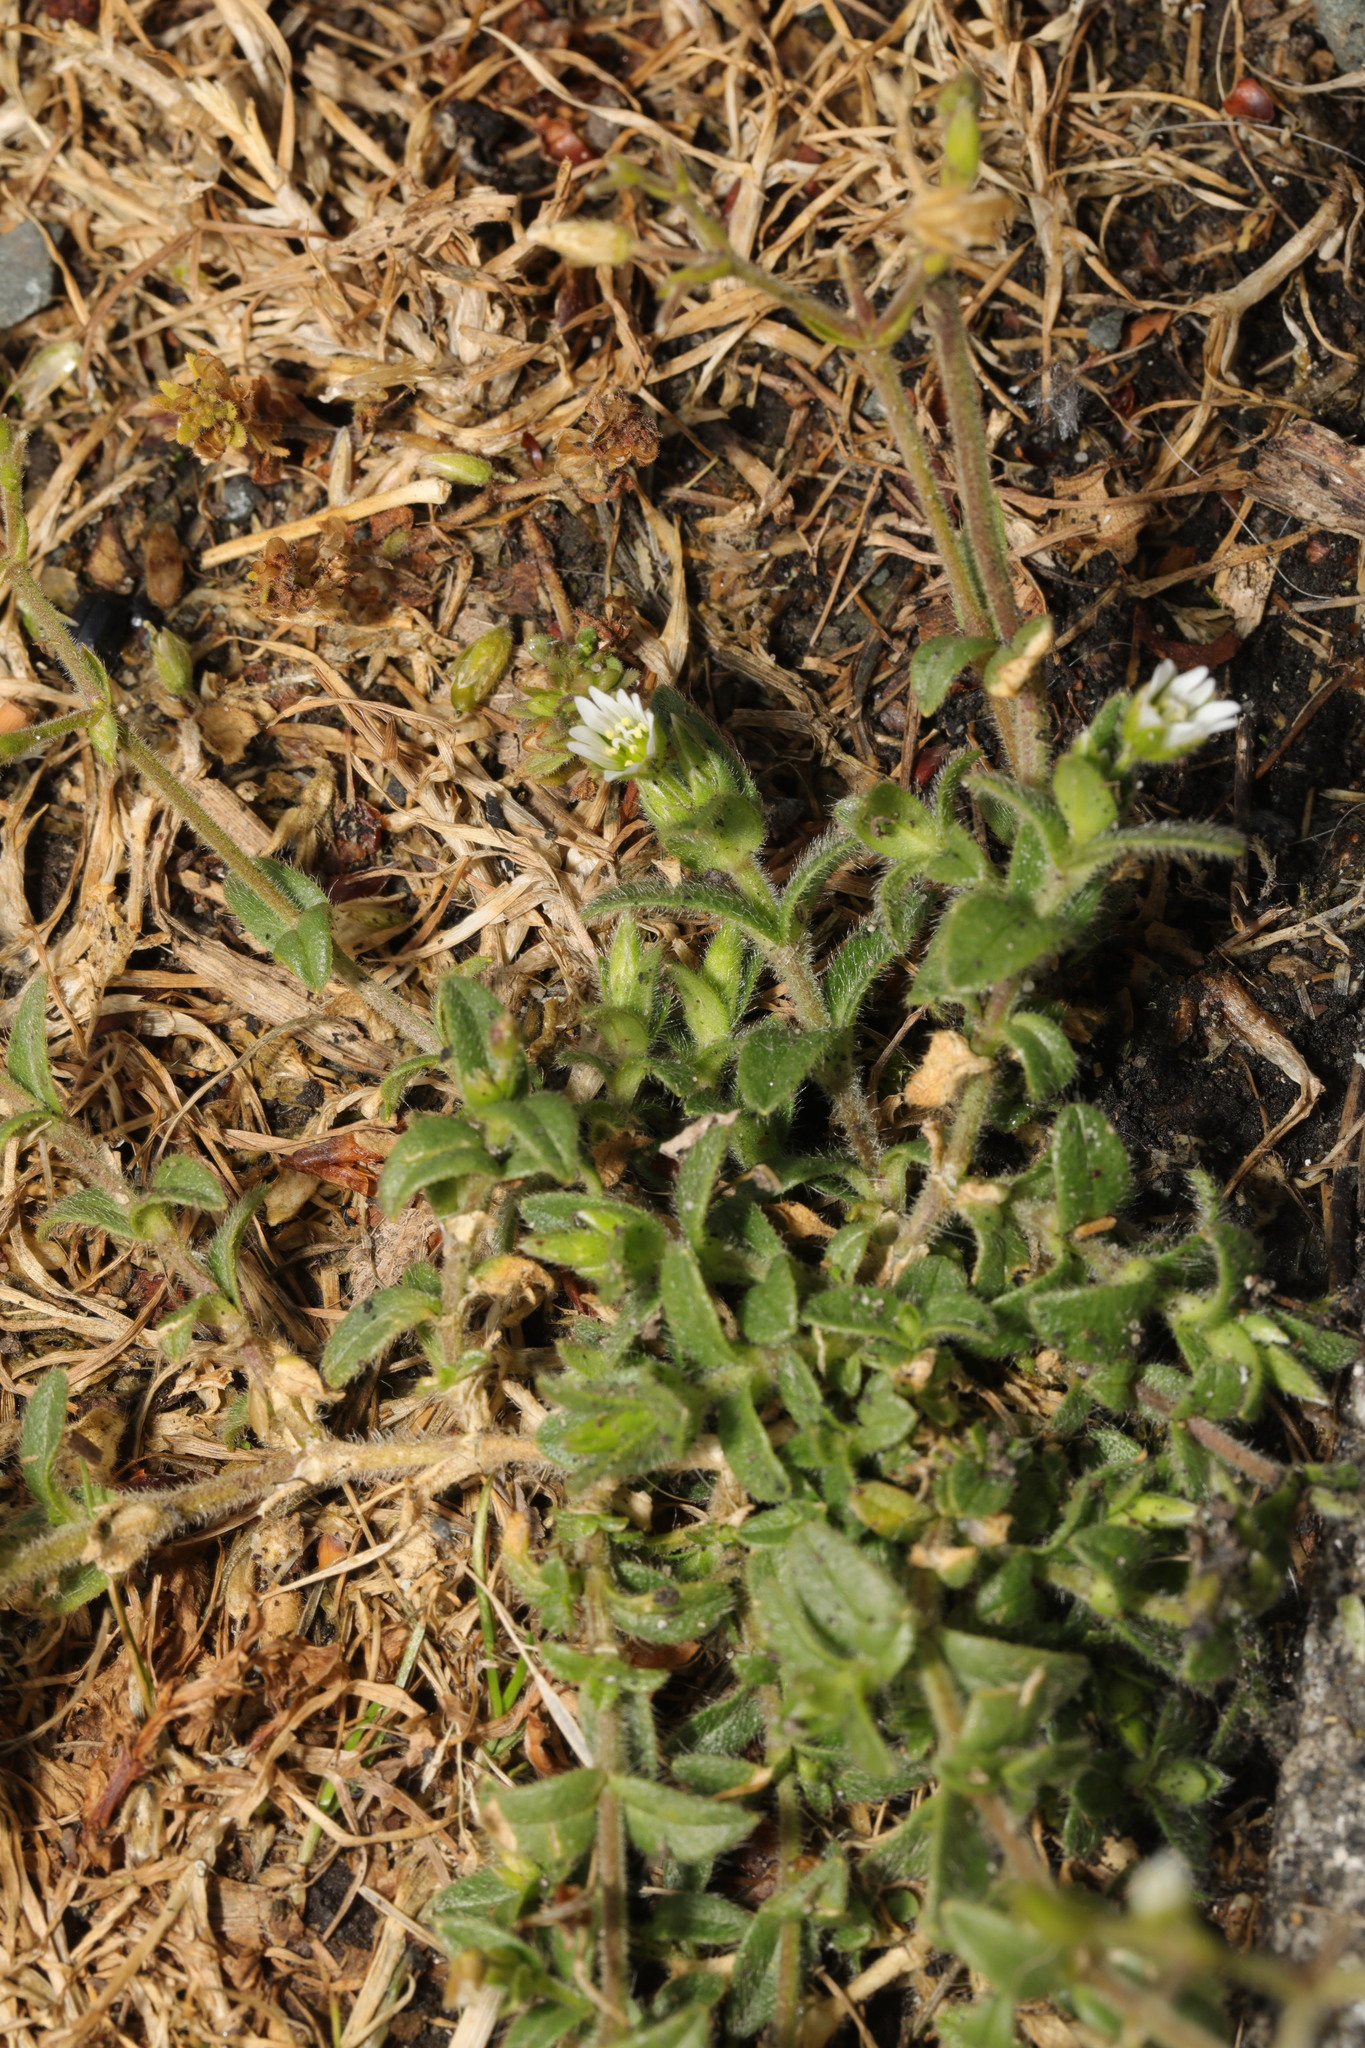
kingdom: Plantae
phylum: Tracheophyta
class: Magnoliopsida
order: Caryophyllales
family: Caryophyllaceae
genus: Cerastium
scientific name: Cerastium fontanum
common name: Common mouse-ear
